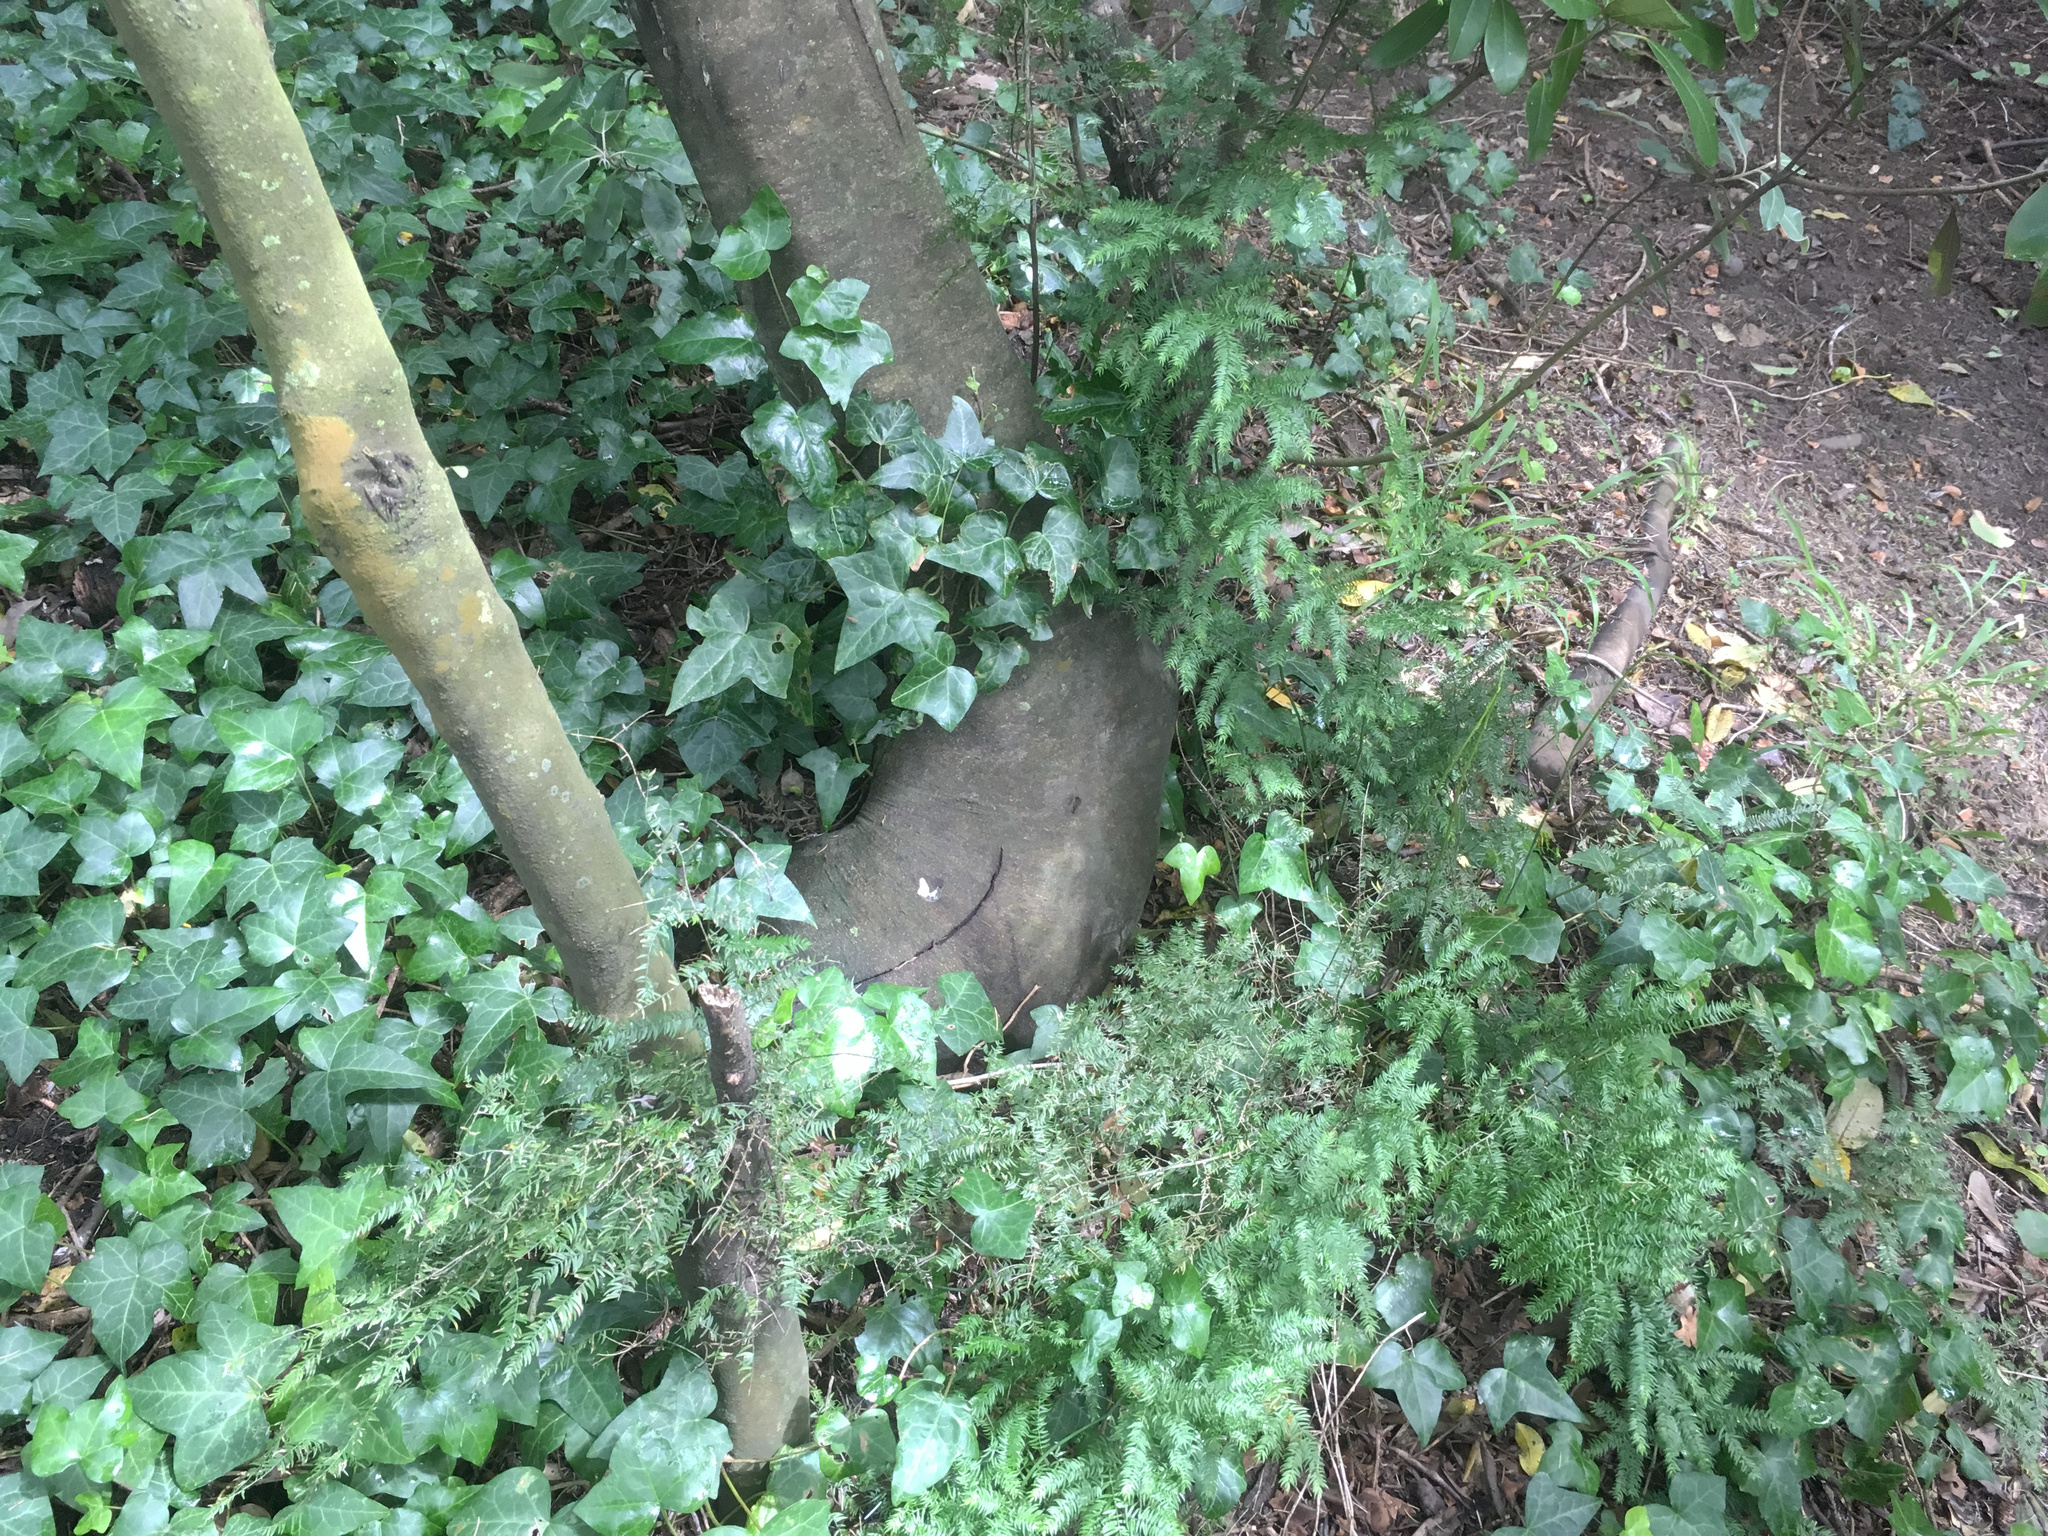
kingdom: Plantae
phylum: Tracheophyta
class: Liliopsida
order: Asparagales
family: Asparagaceae
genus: Asparagus
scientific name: Asparagus scandens
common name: Asparagus-fern
